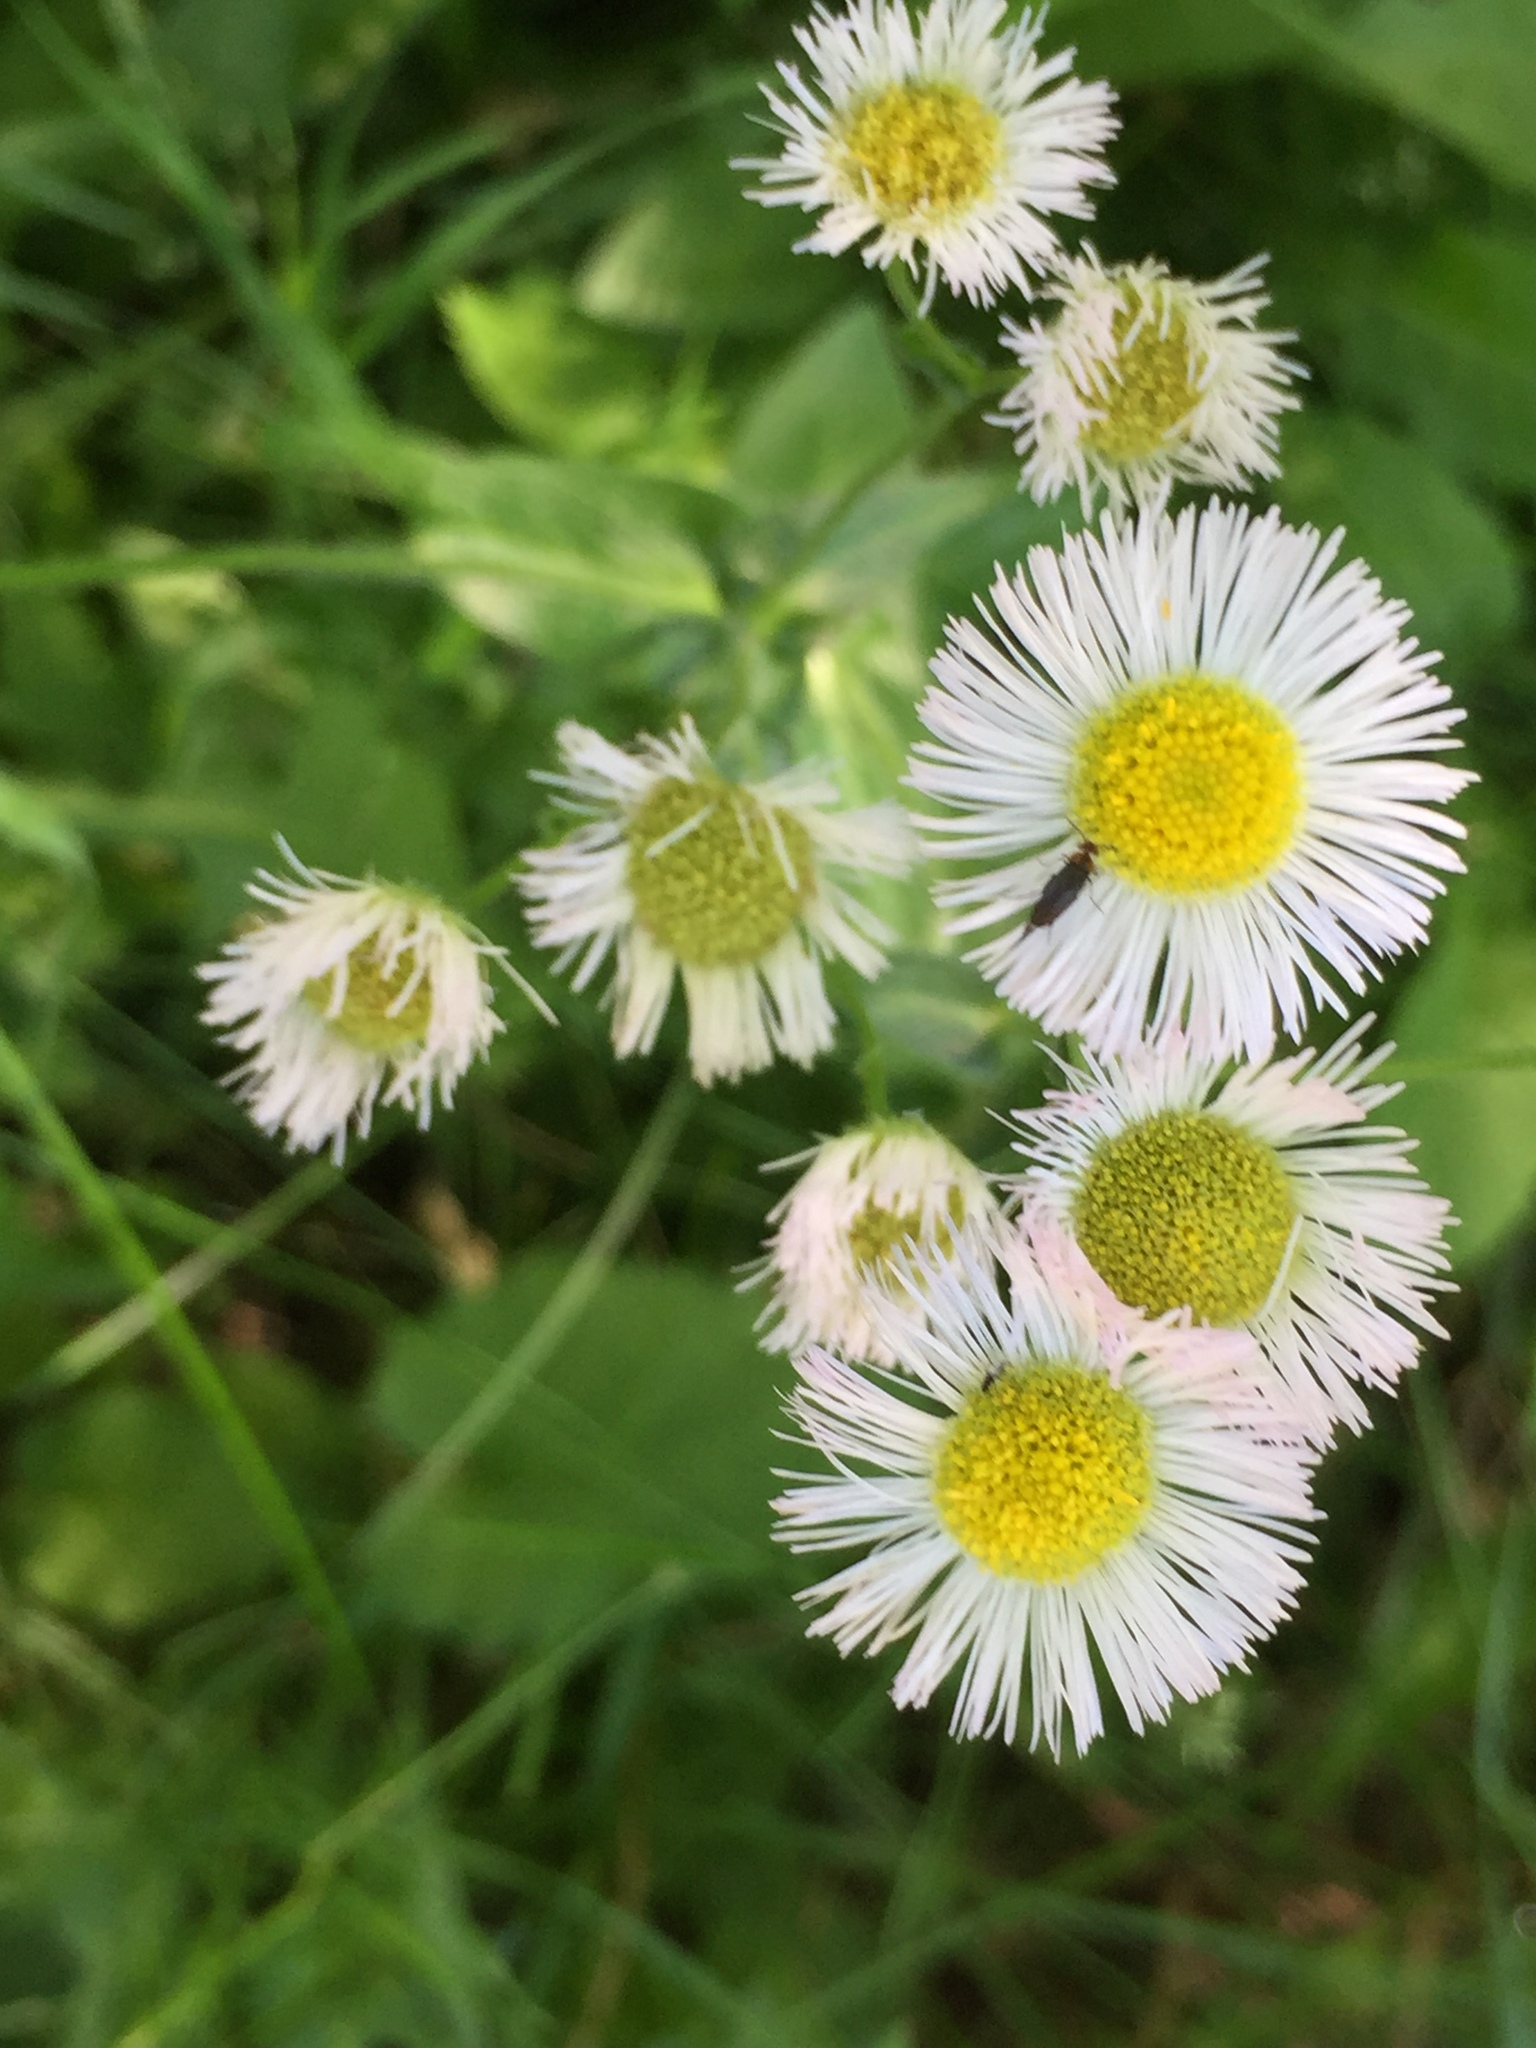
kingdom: Plantae
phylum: Tracheophyta
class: Magnoliopsida
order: Asterales
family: Asteraceae
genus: Erigeron
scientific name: Erigeron philadelphicus
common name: Robin's-plantain
